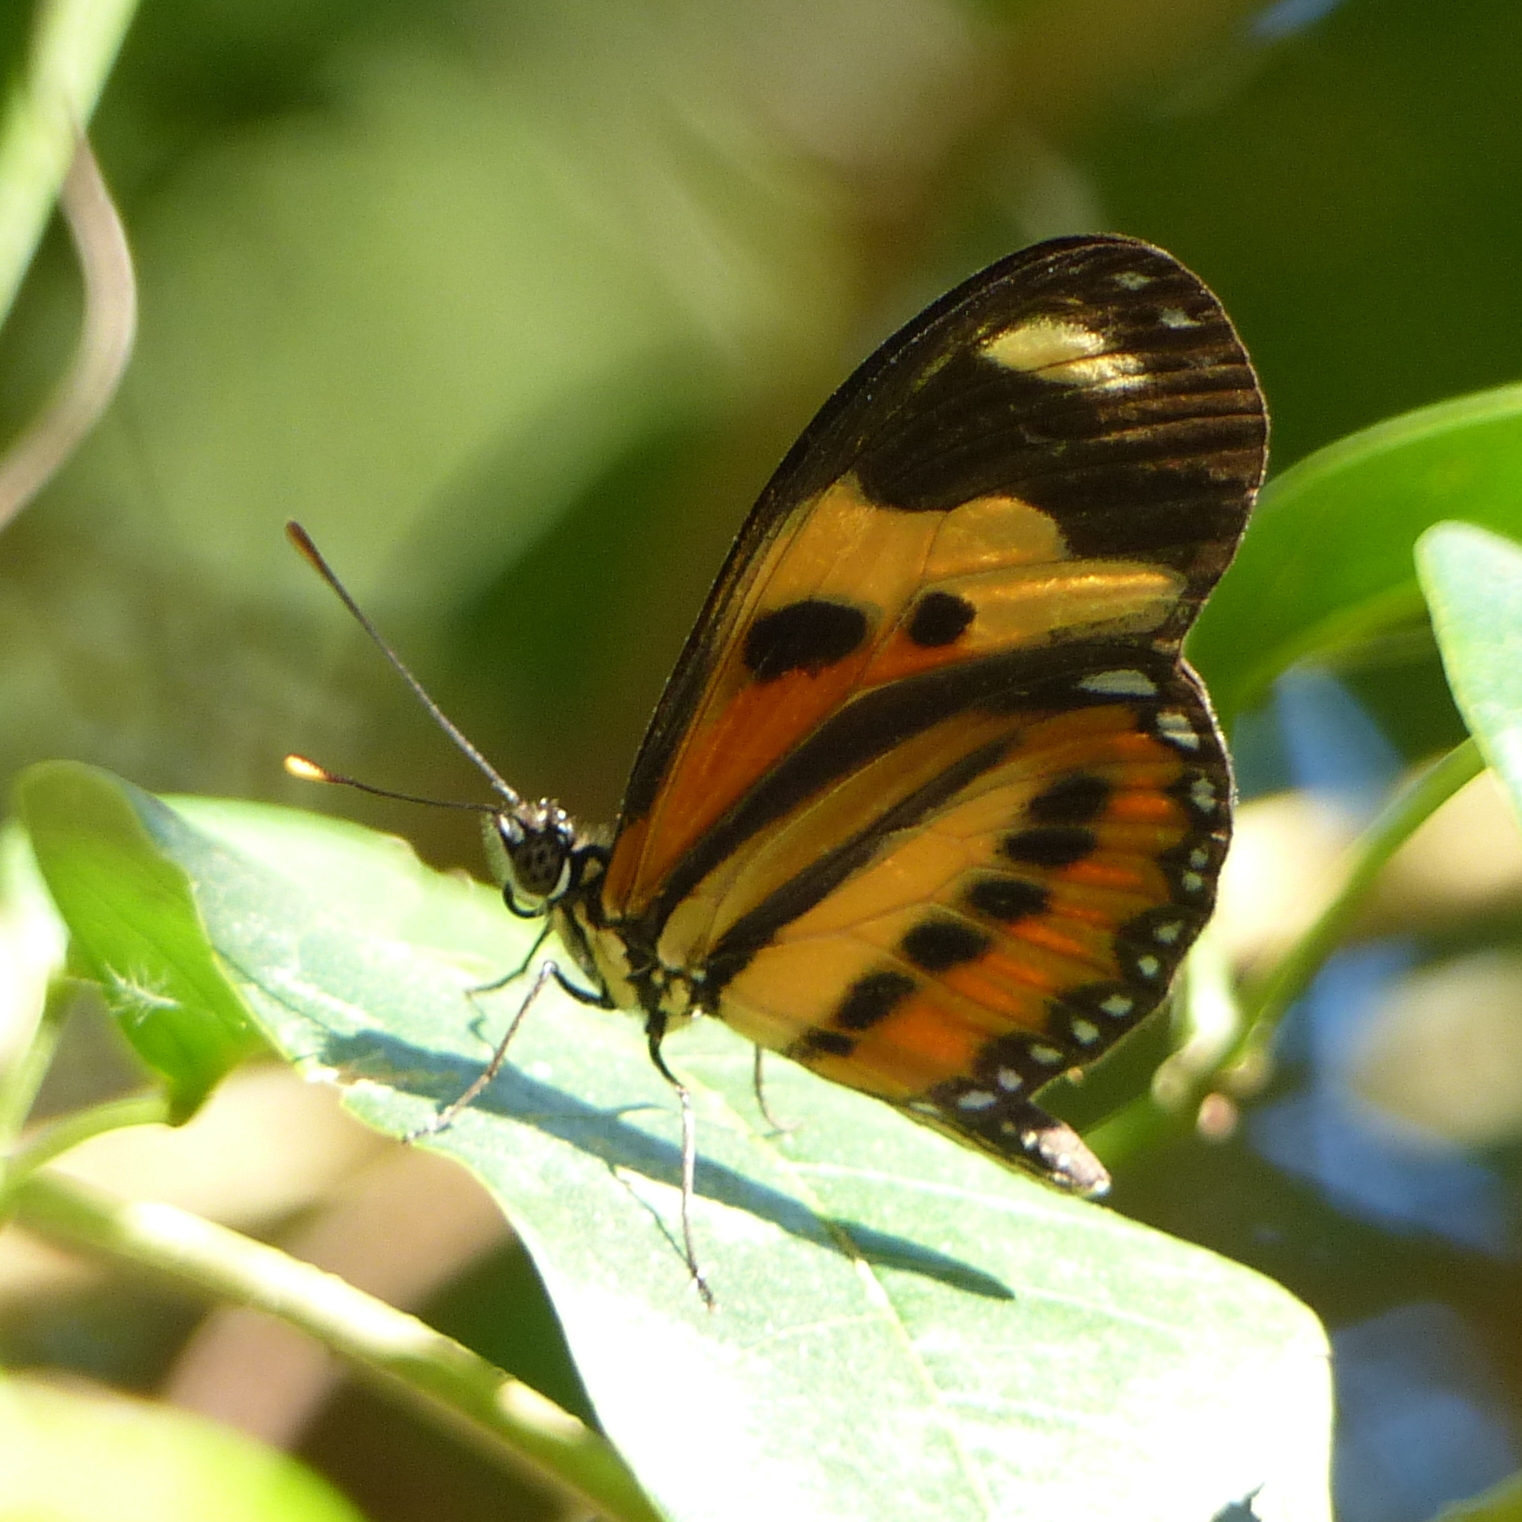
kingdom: Animalia
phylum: Arthropoda
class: Insecta
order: Lepidoptera
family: Nymphalidae
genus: Eueides
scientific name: Eueides isabella
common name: Isabella's longwing
